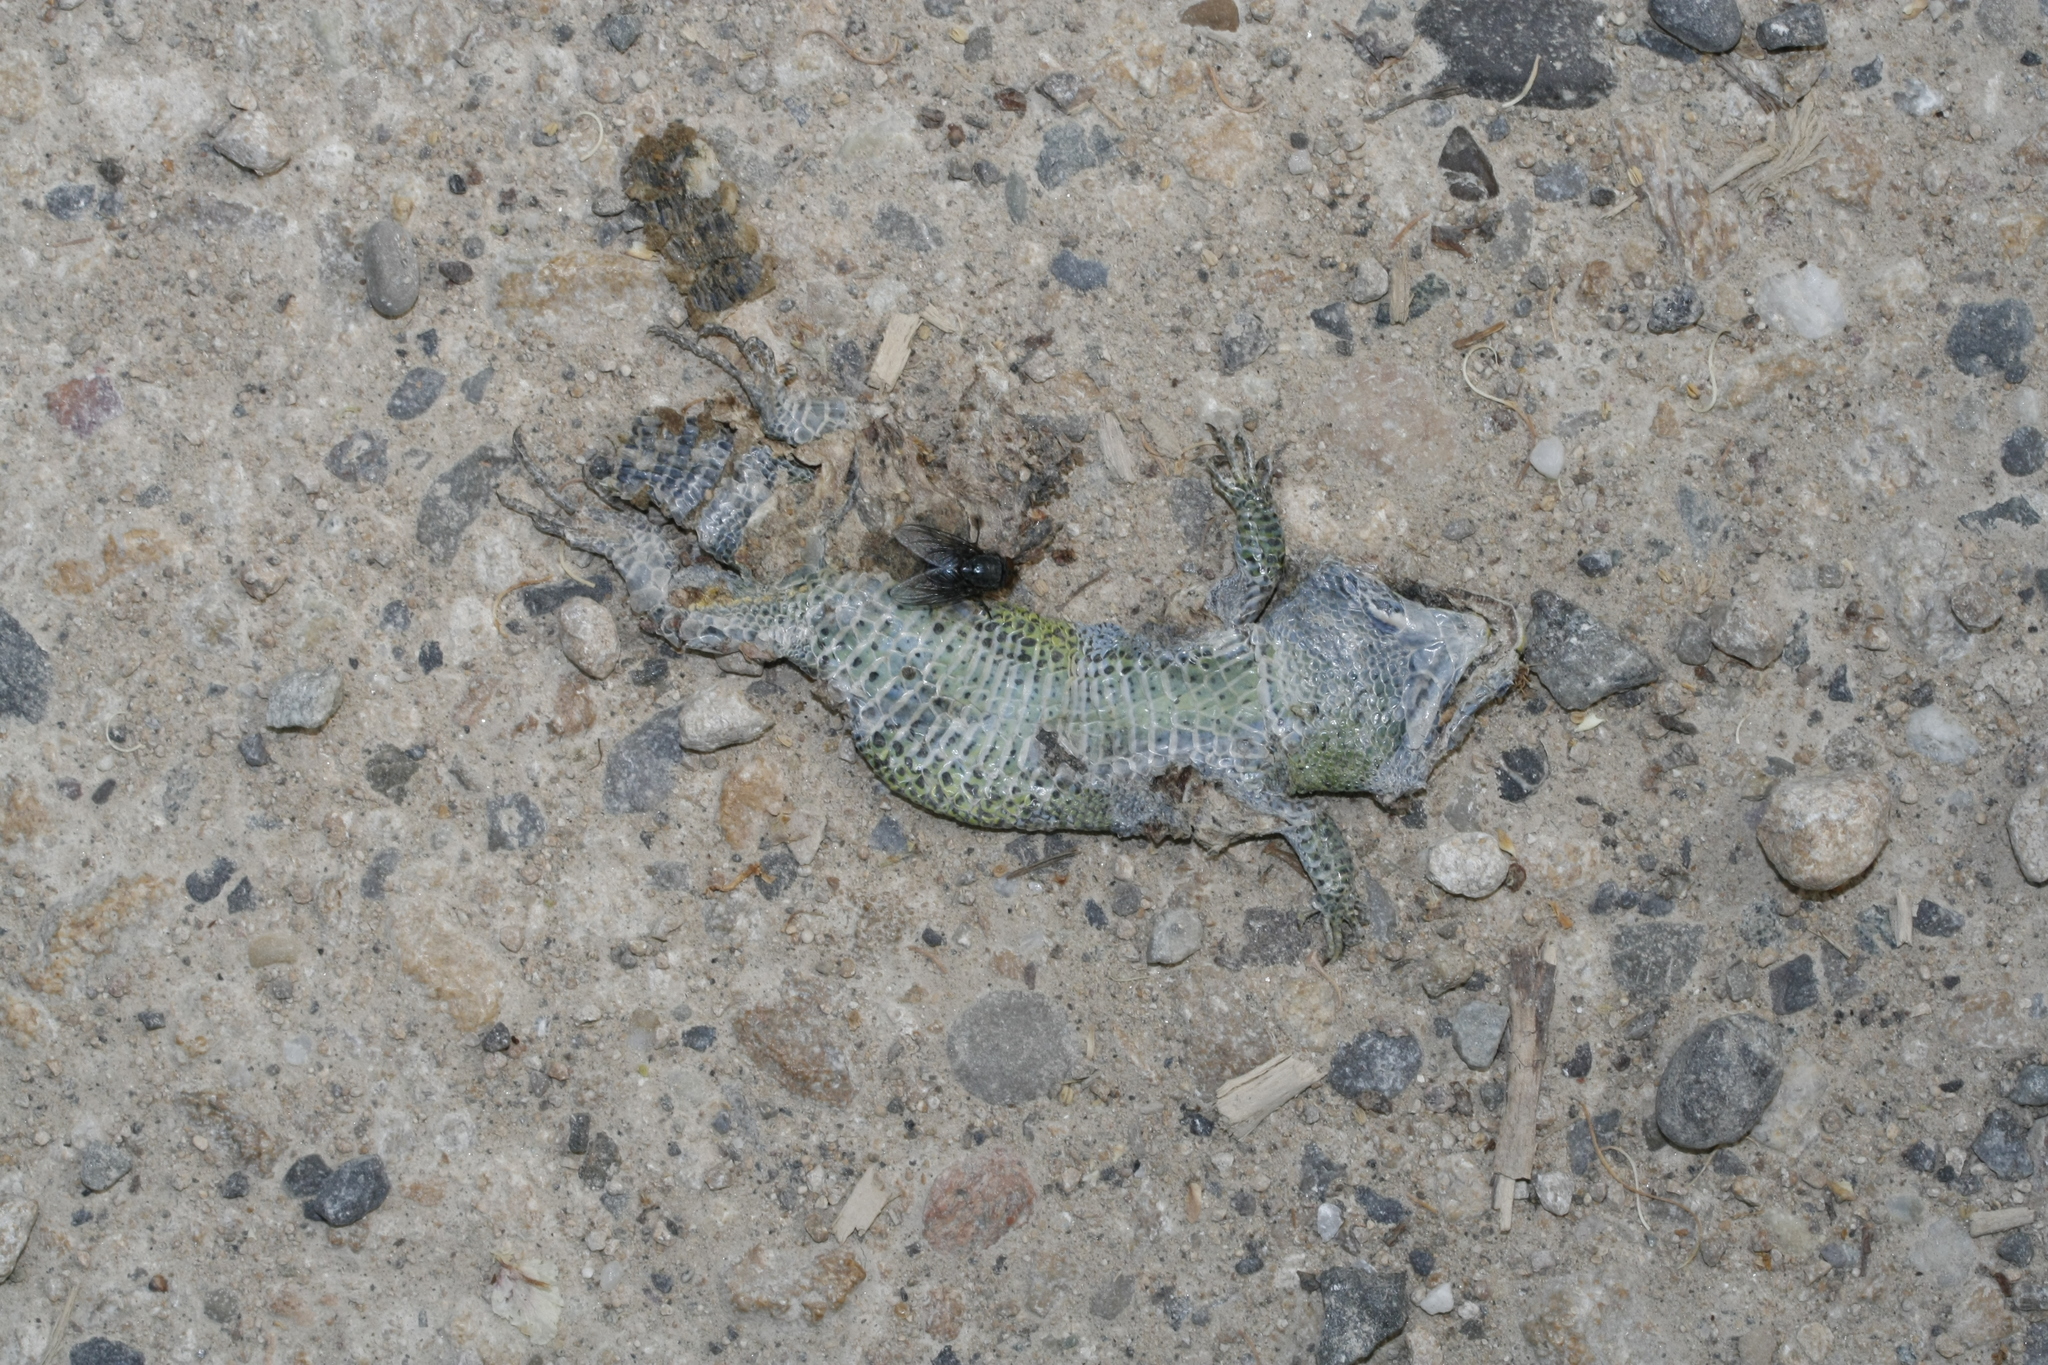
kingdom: Animalia
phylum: Chordata
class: Squamata
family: Lacertidae
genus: Lacerta
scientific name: Lacerta agilis
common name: Sand lizard
